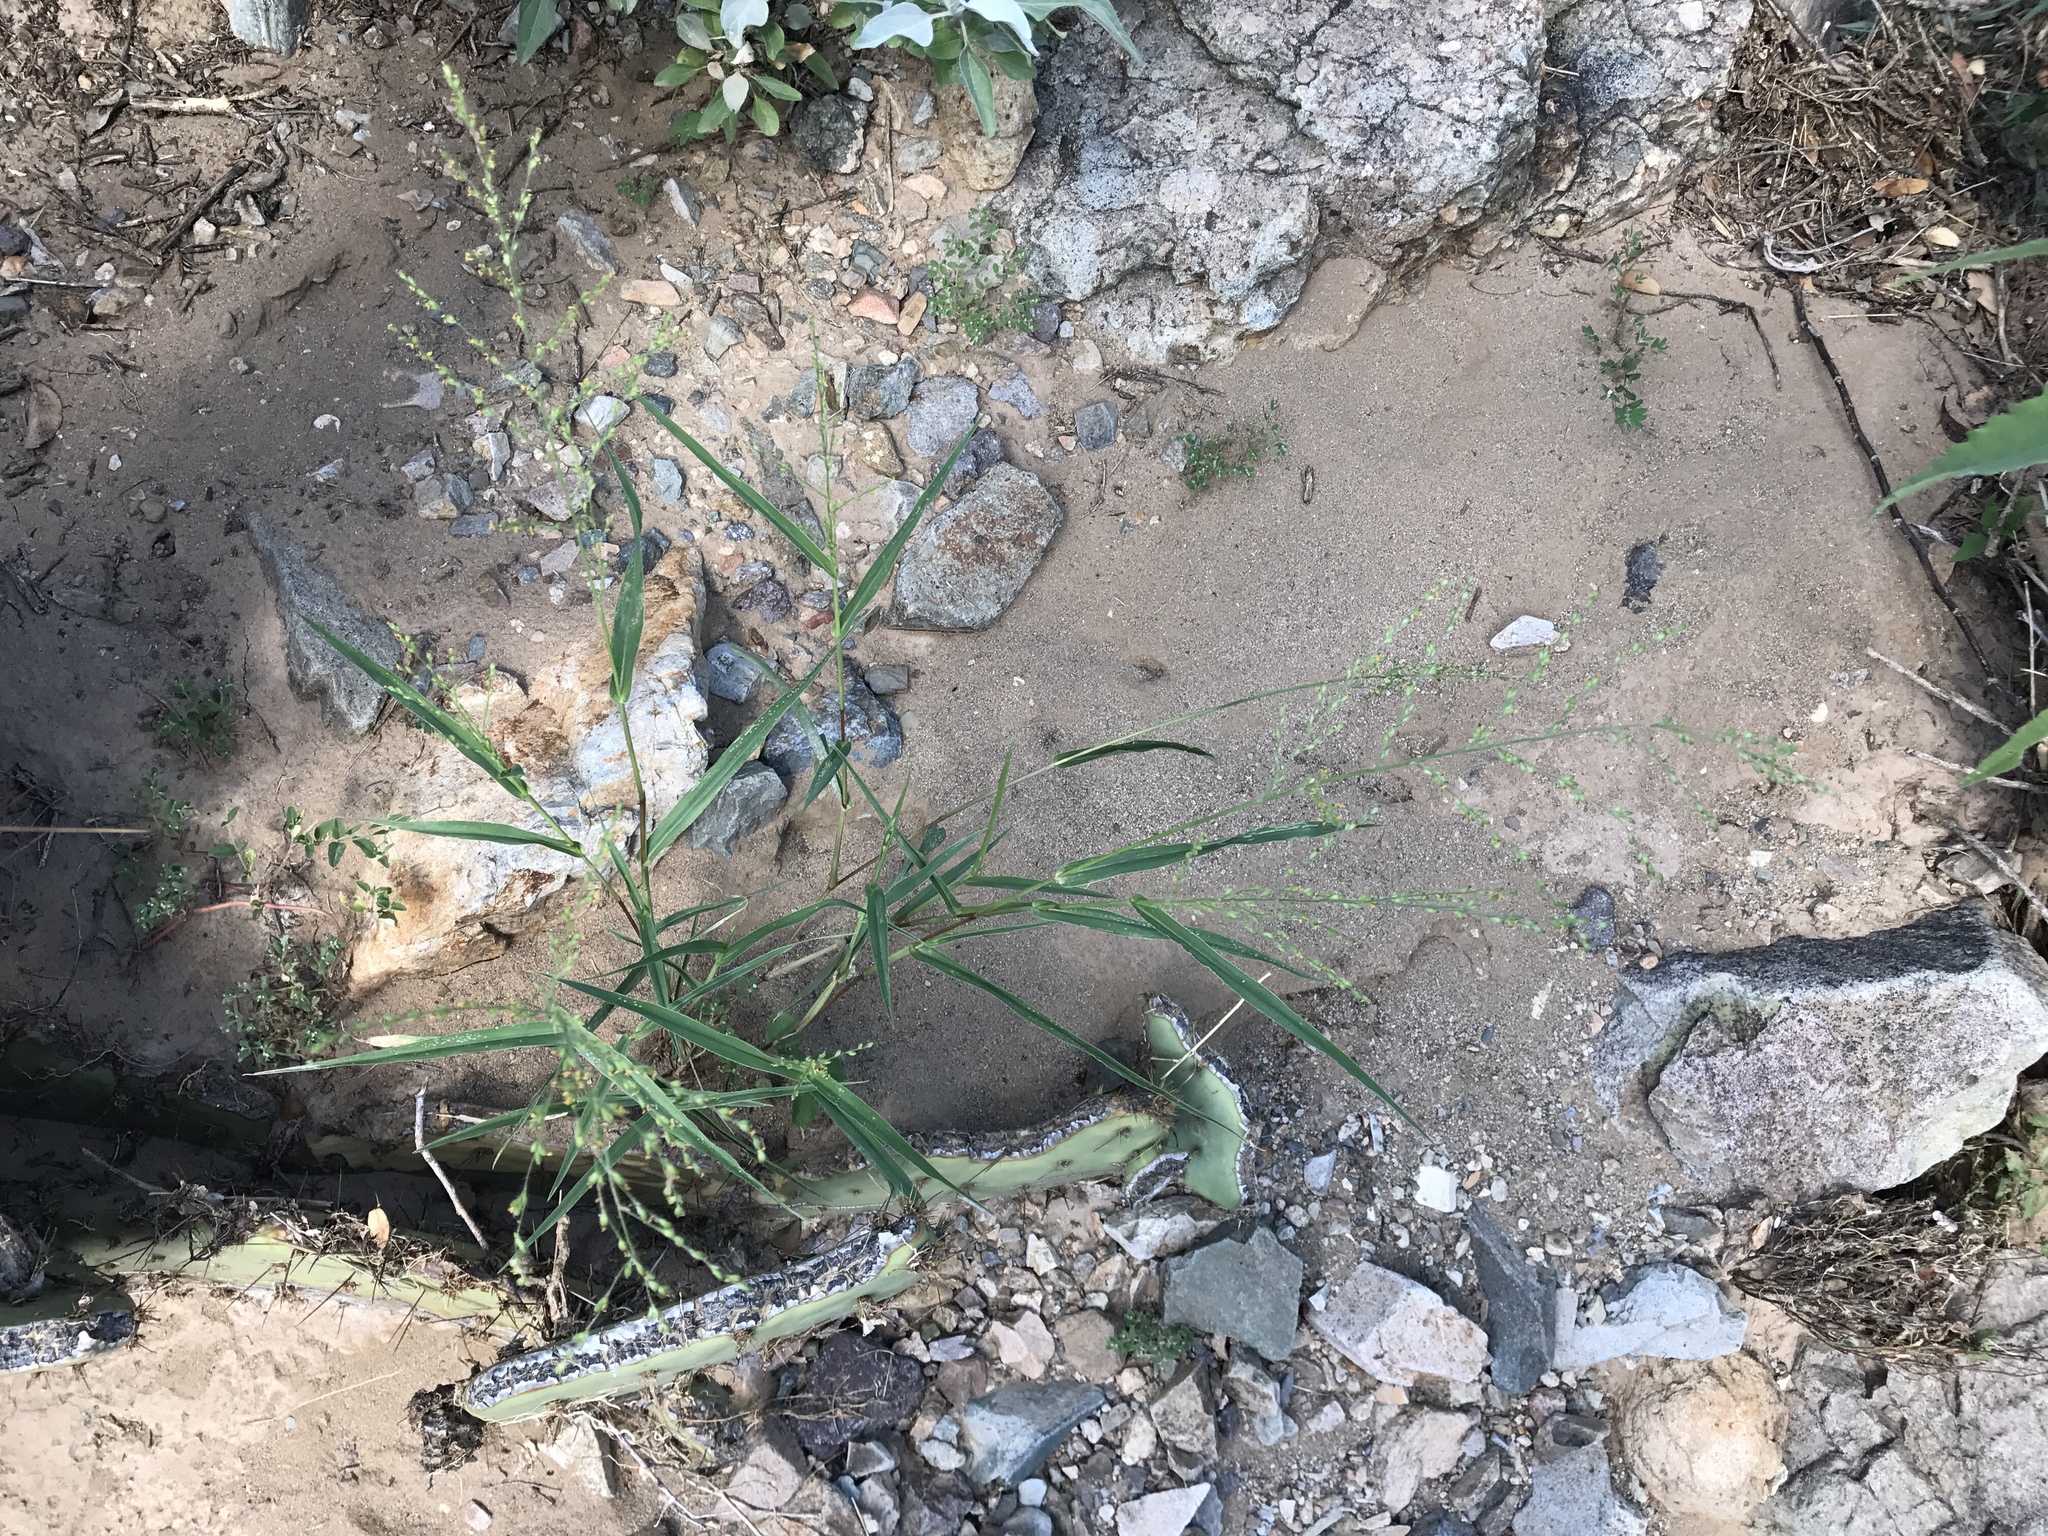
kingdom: Plantae
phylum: Tracheophyta
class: Liliopsida
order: Poales
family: Poaceae
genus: Urochloa
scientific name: Urochloa arizonica
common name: Arizona signal grass
